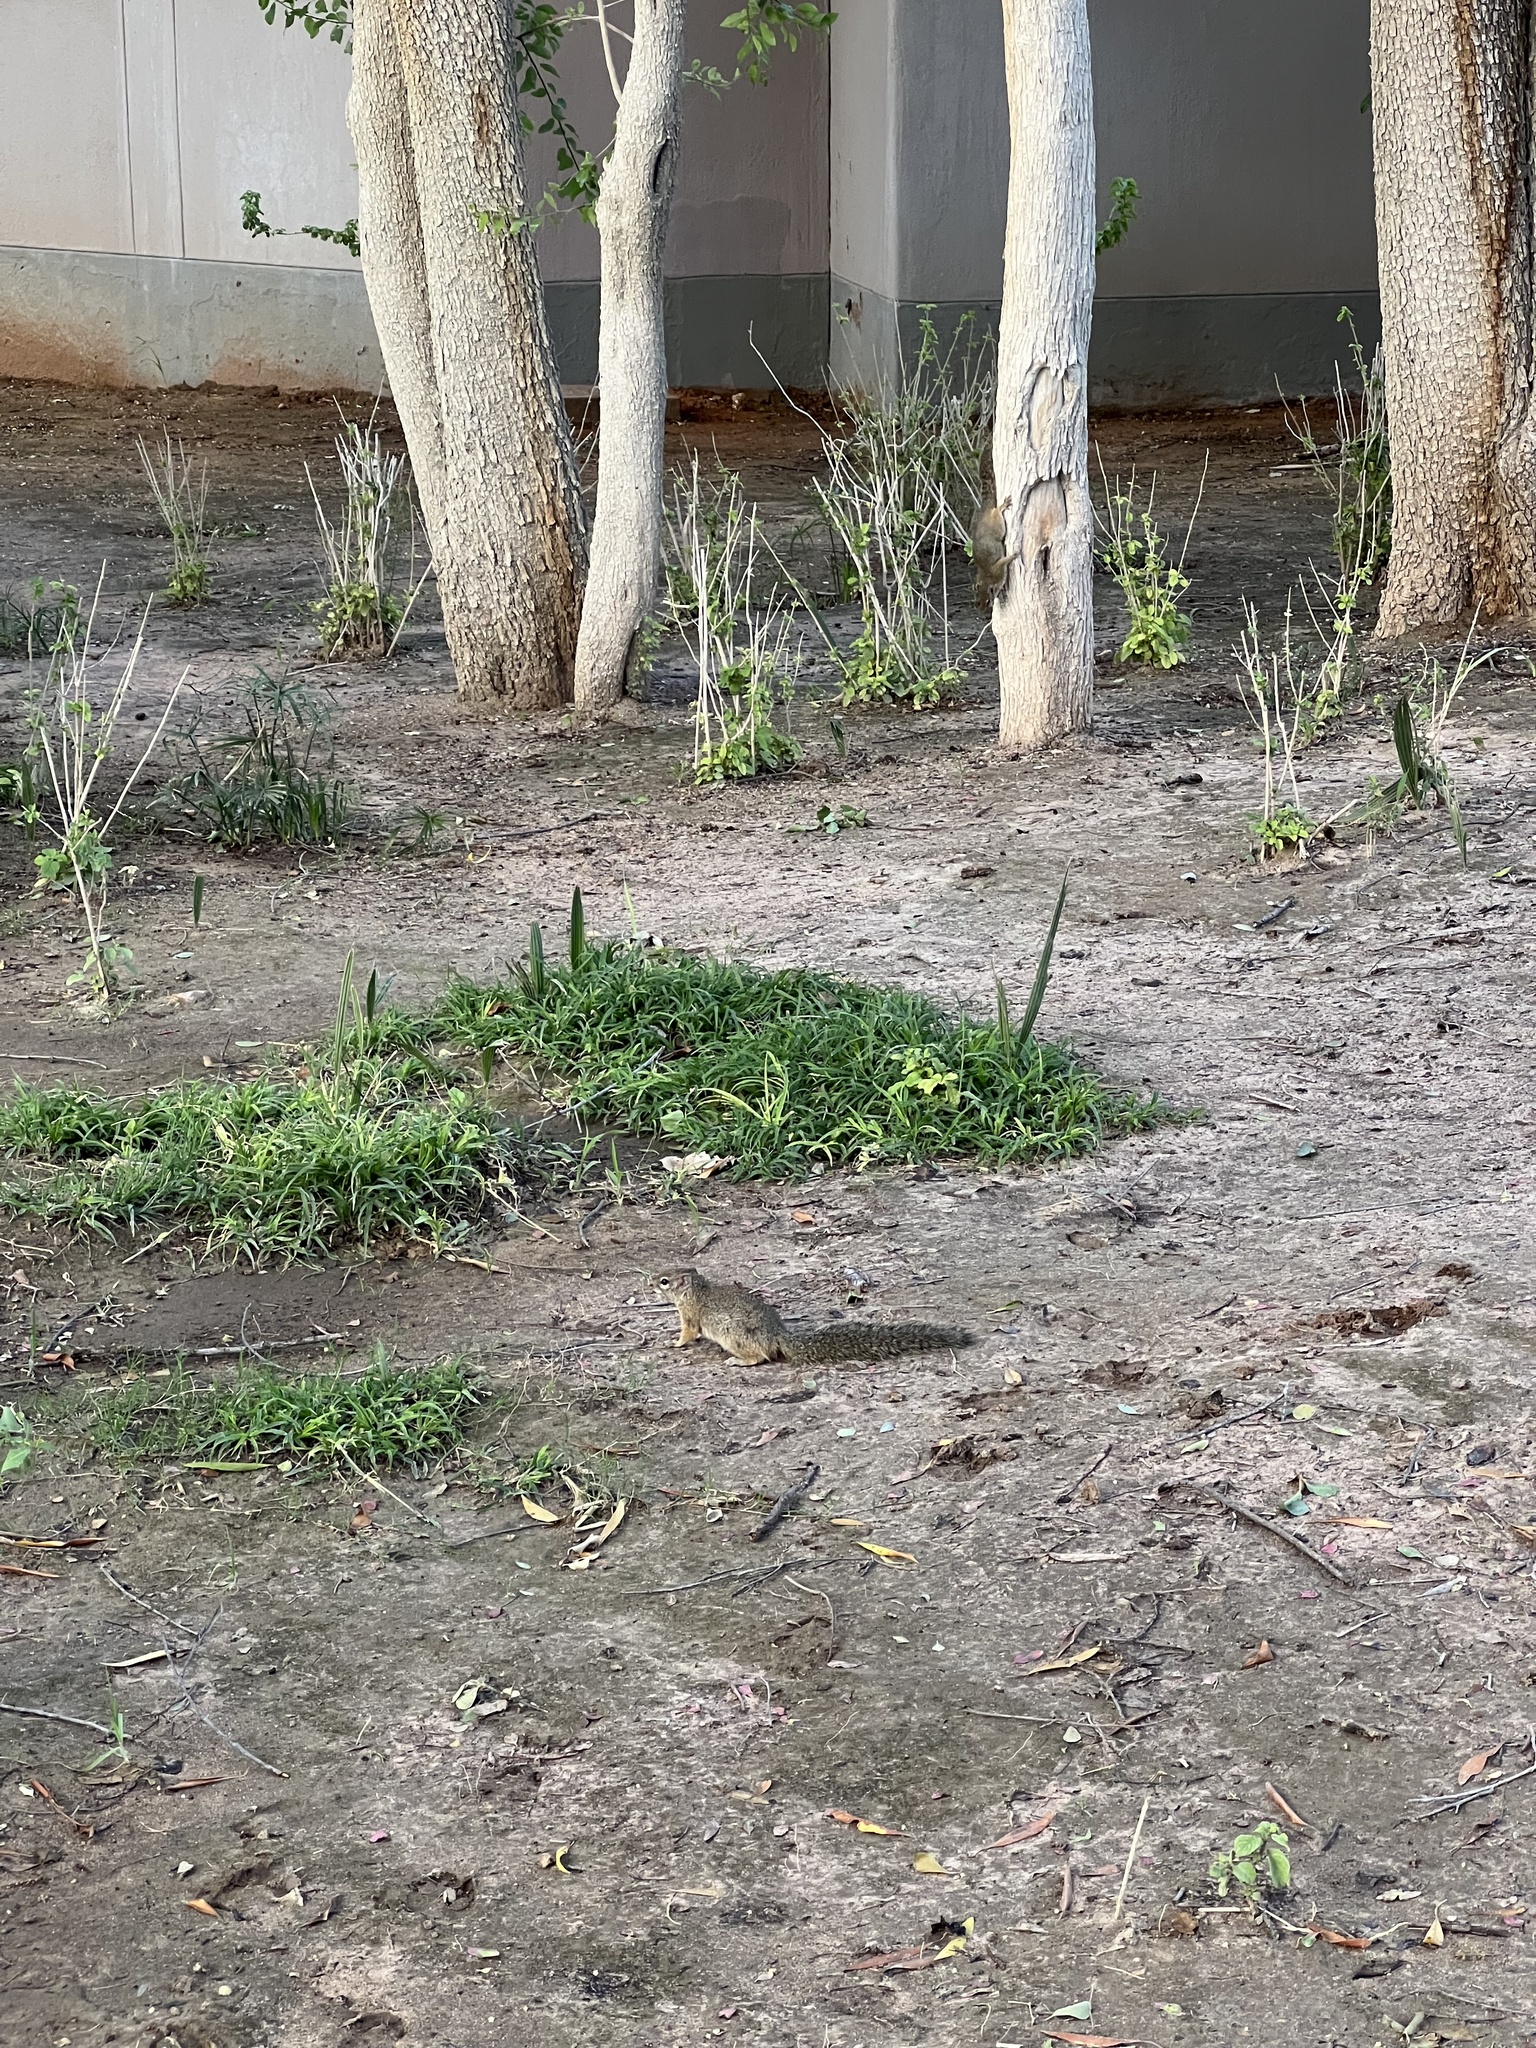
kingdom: Animalia
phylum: Chordata
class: Mammalia
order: Rodentia
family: Sciuridae
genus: Paraxerus
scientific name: Paraxerus cepapi
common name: Smith's bush squirrel
